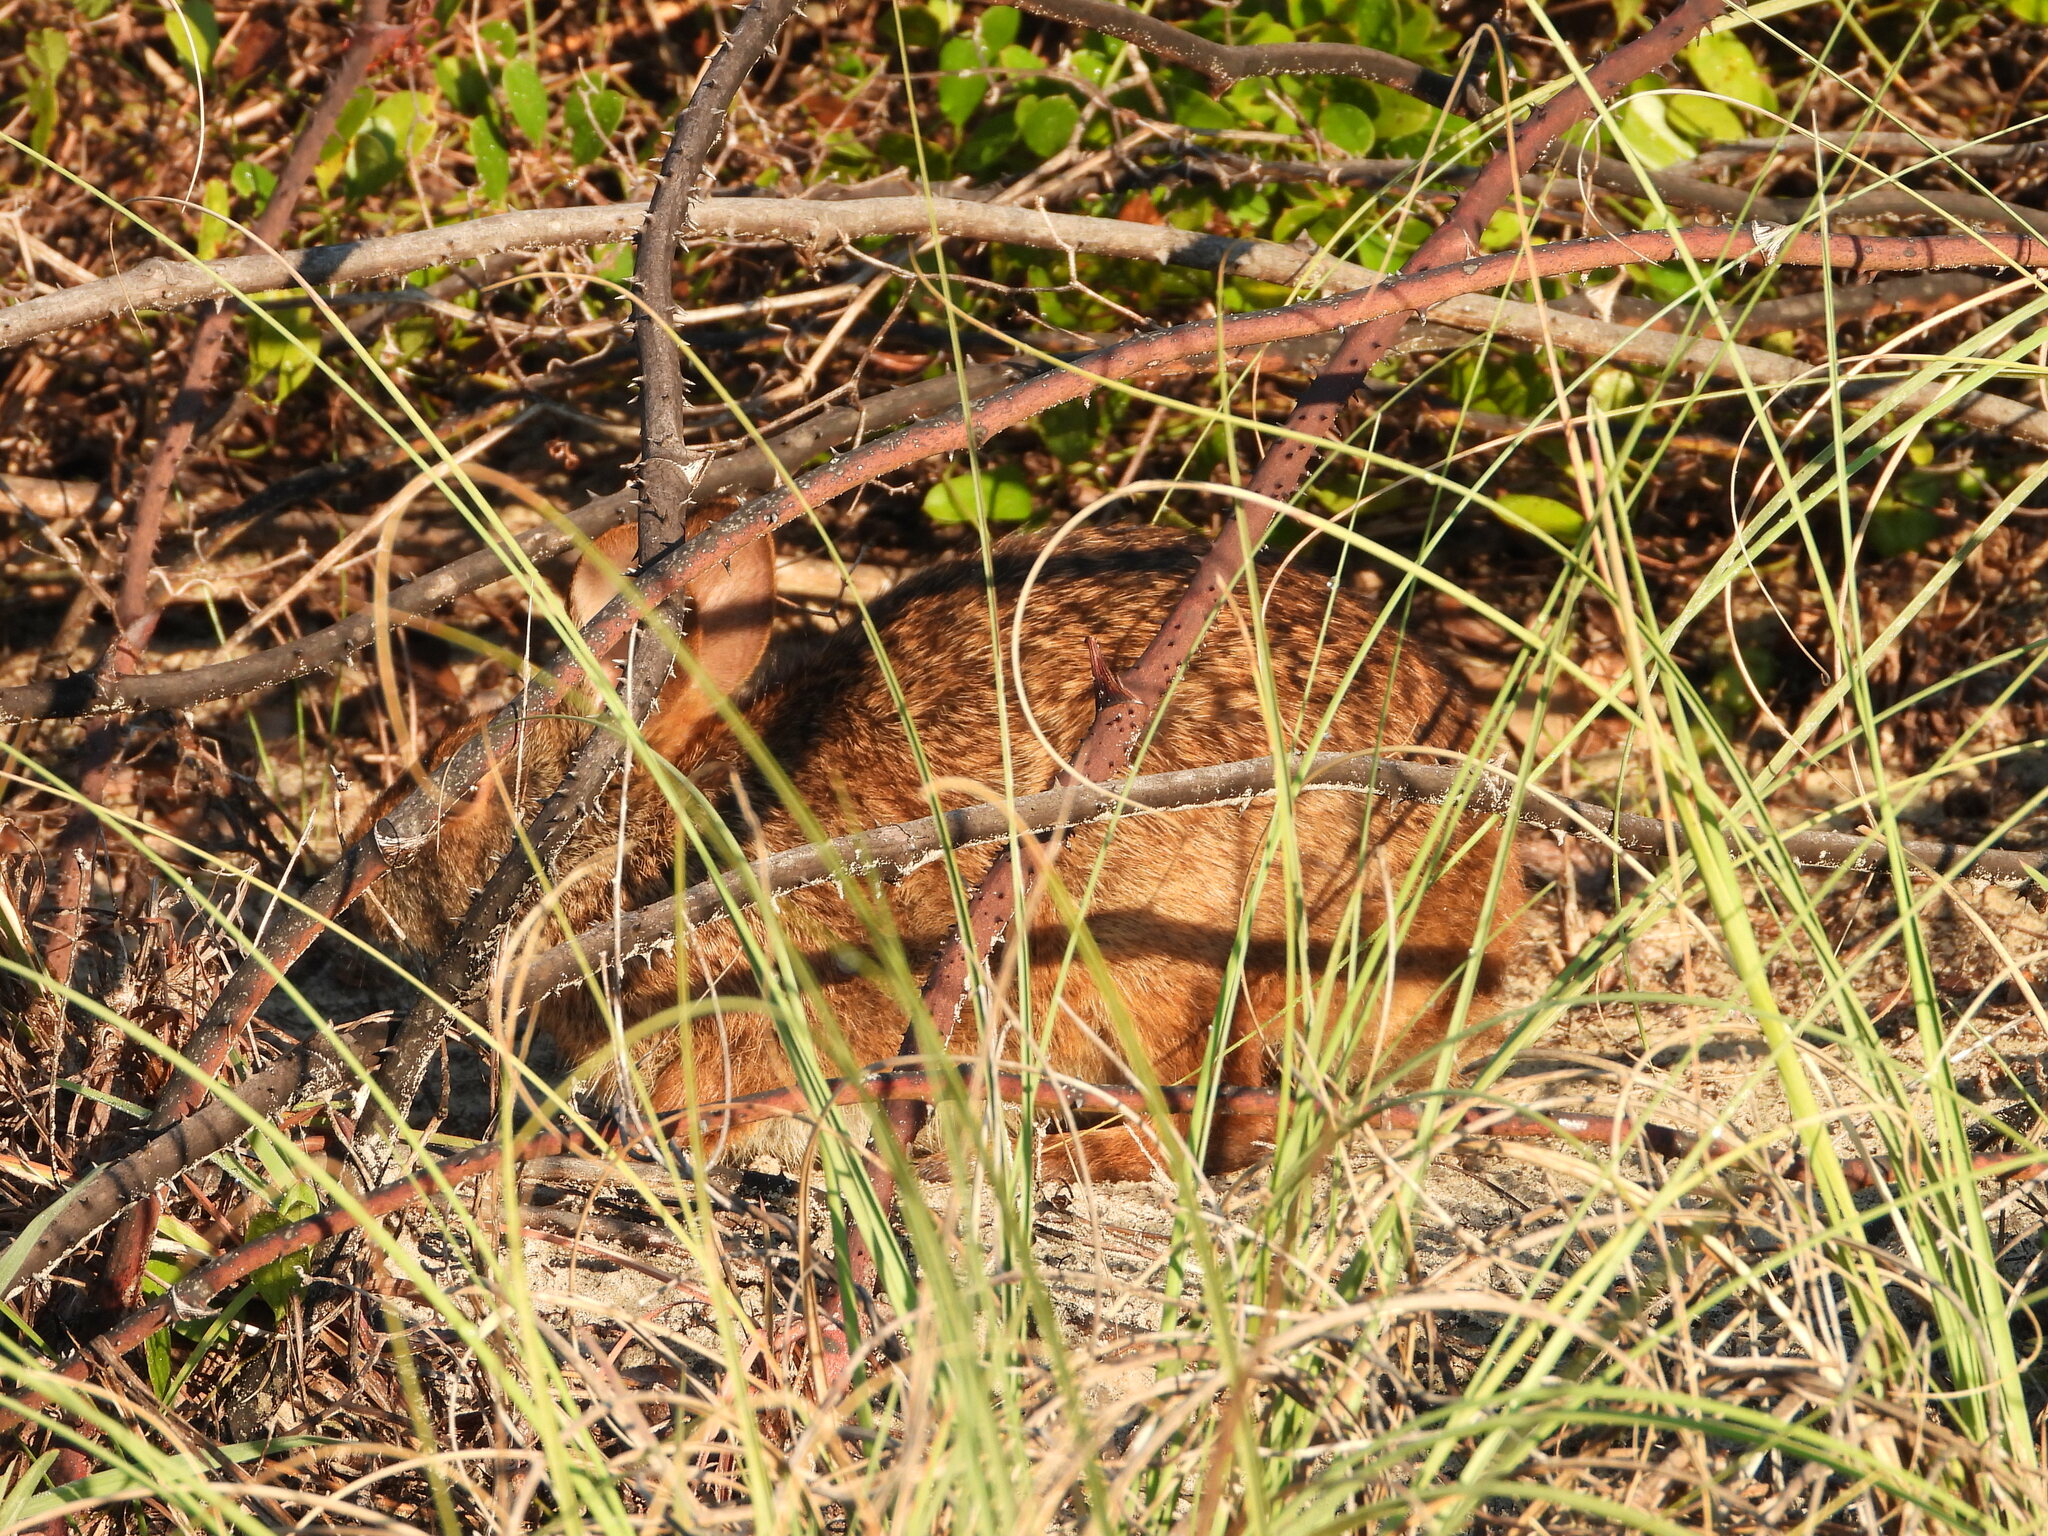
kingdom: Animalia
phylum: Chordata
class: Mammalia
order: Lagomorpha
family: Leporidae
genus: Sylvilagus
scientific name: Sylvilagus palustris
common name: Marsh rabbit
